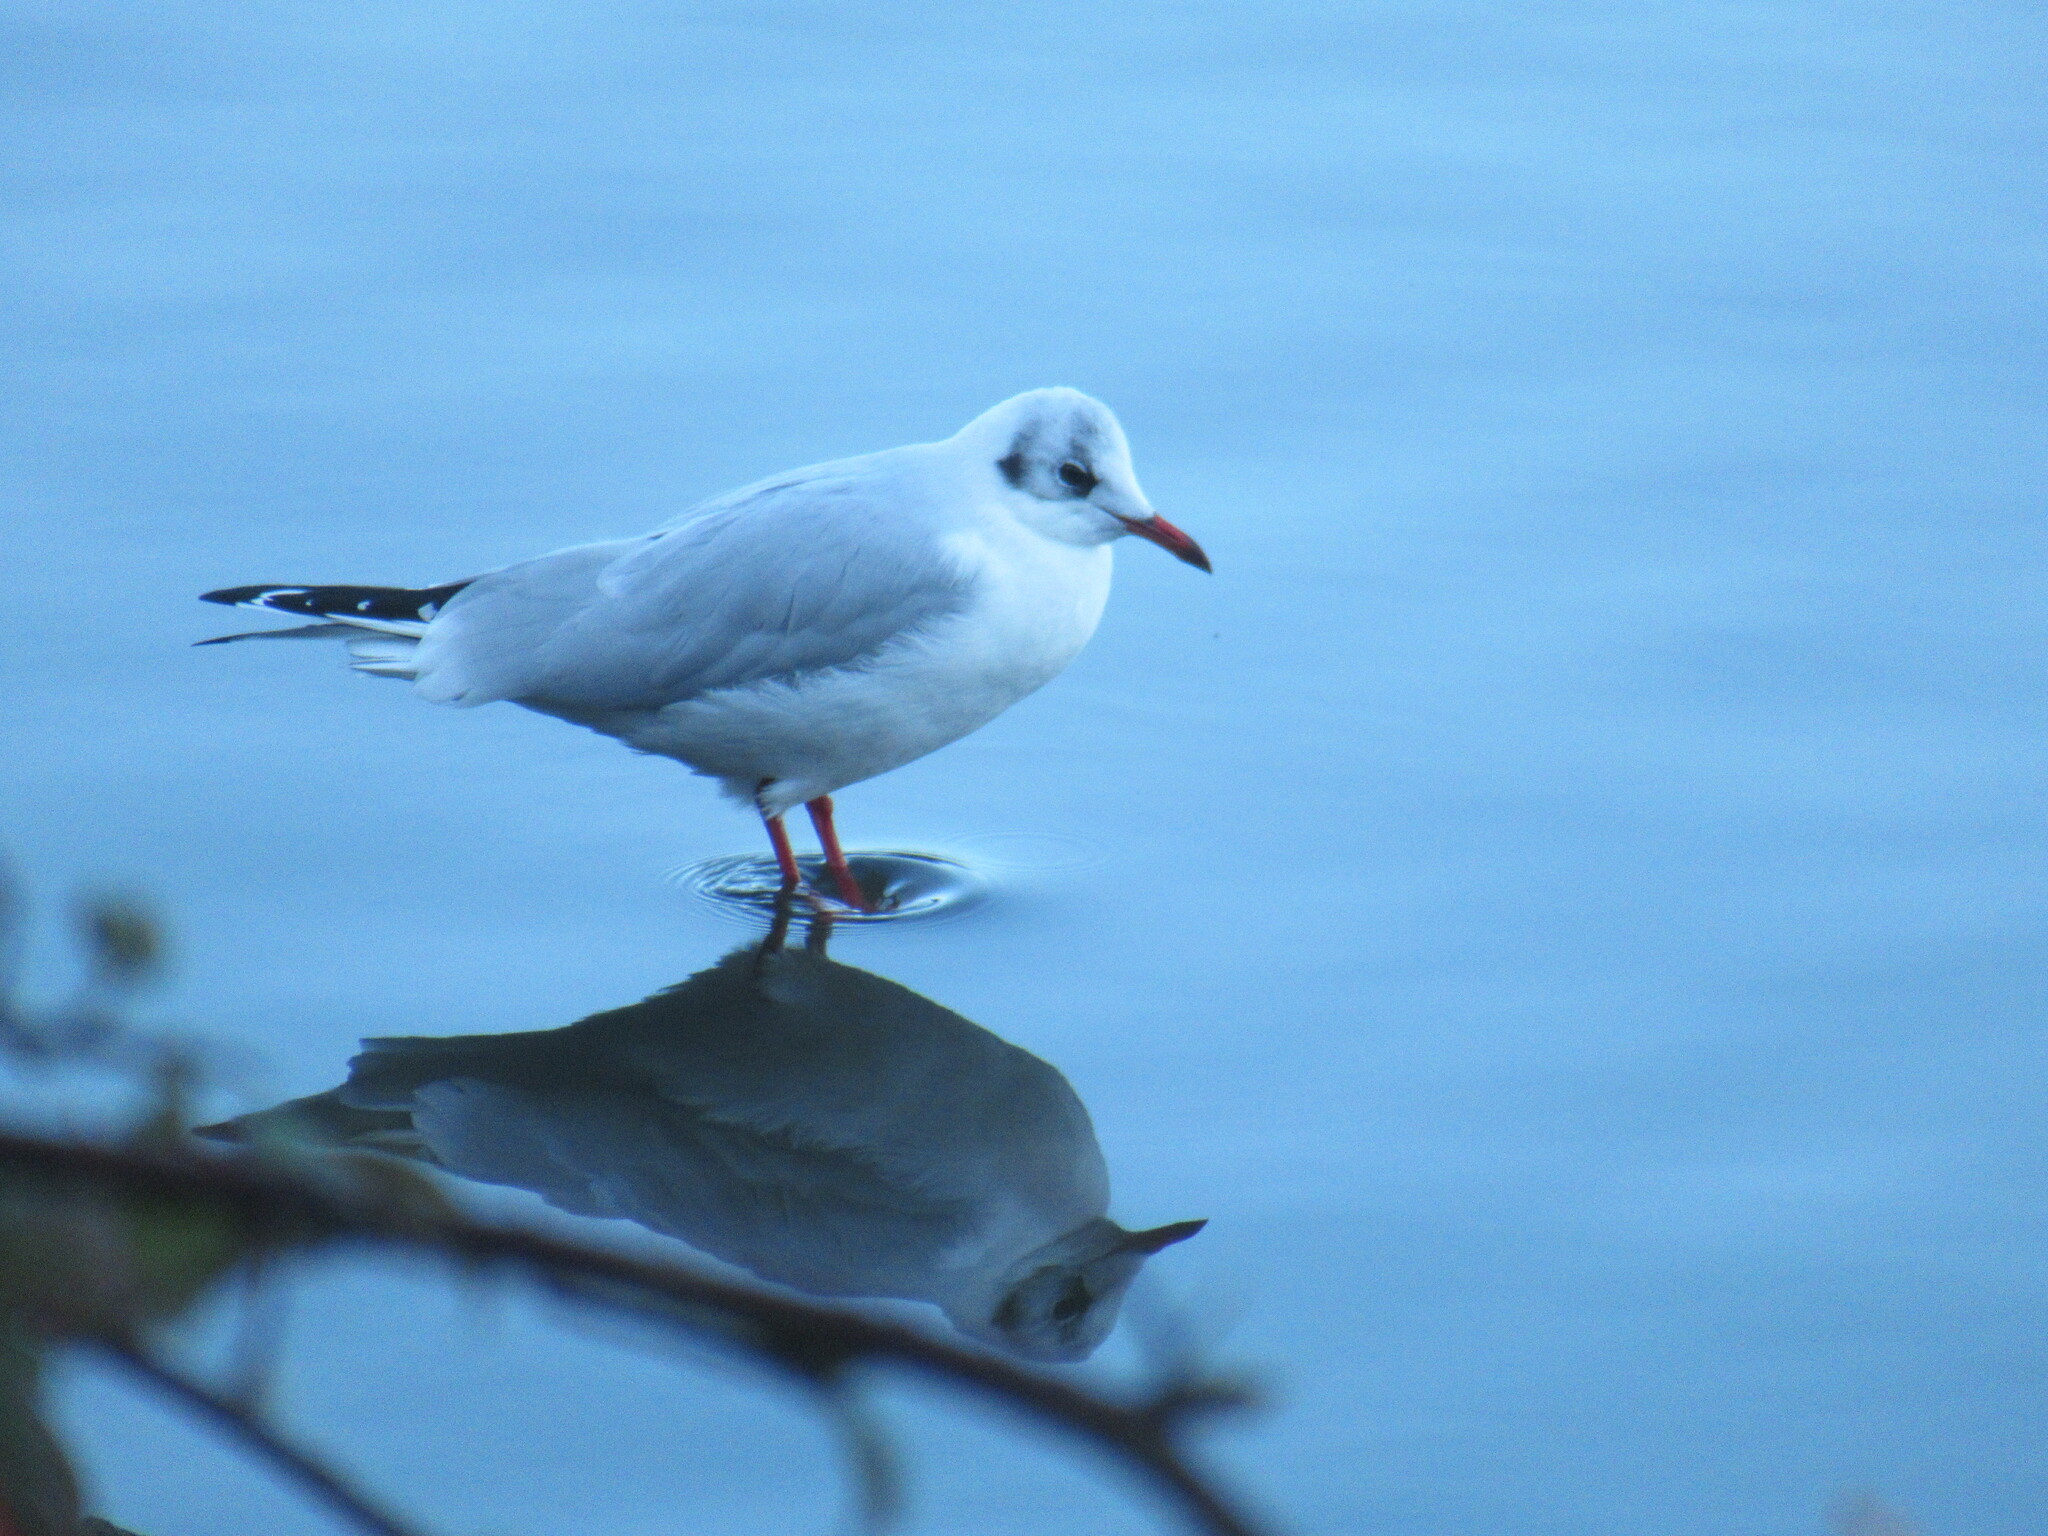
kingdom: Animalia
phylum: Chordata
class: Aves
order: Charadriiformes
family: Laridae
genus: Chroicocephalus
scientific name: Chroicocephalus ridibundus
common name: Black-headed gull
